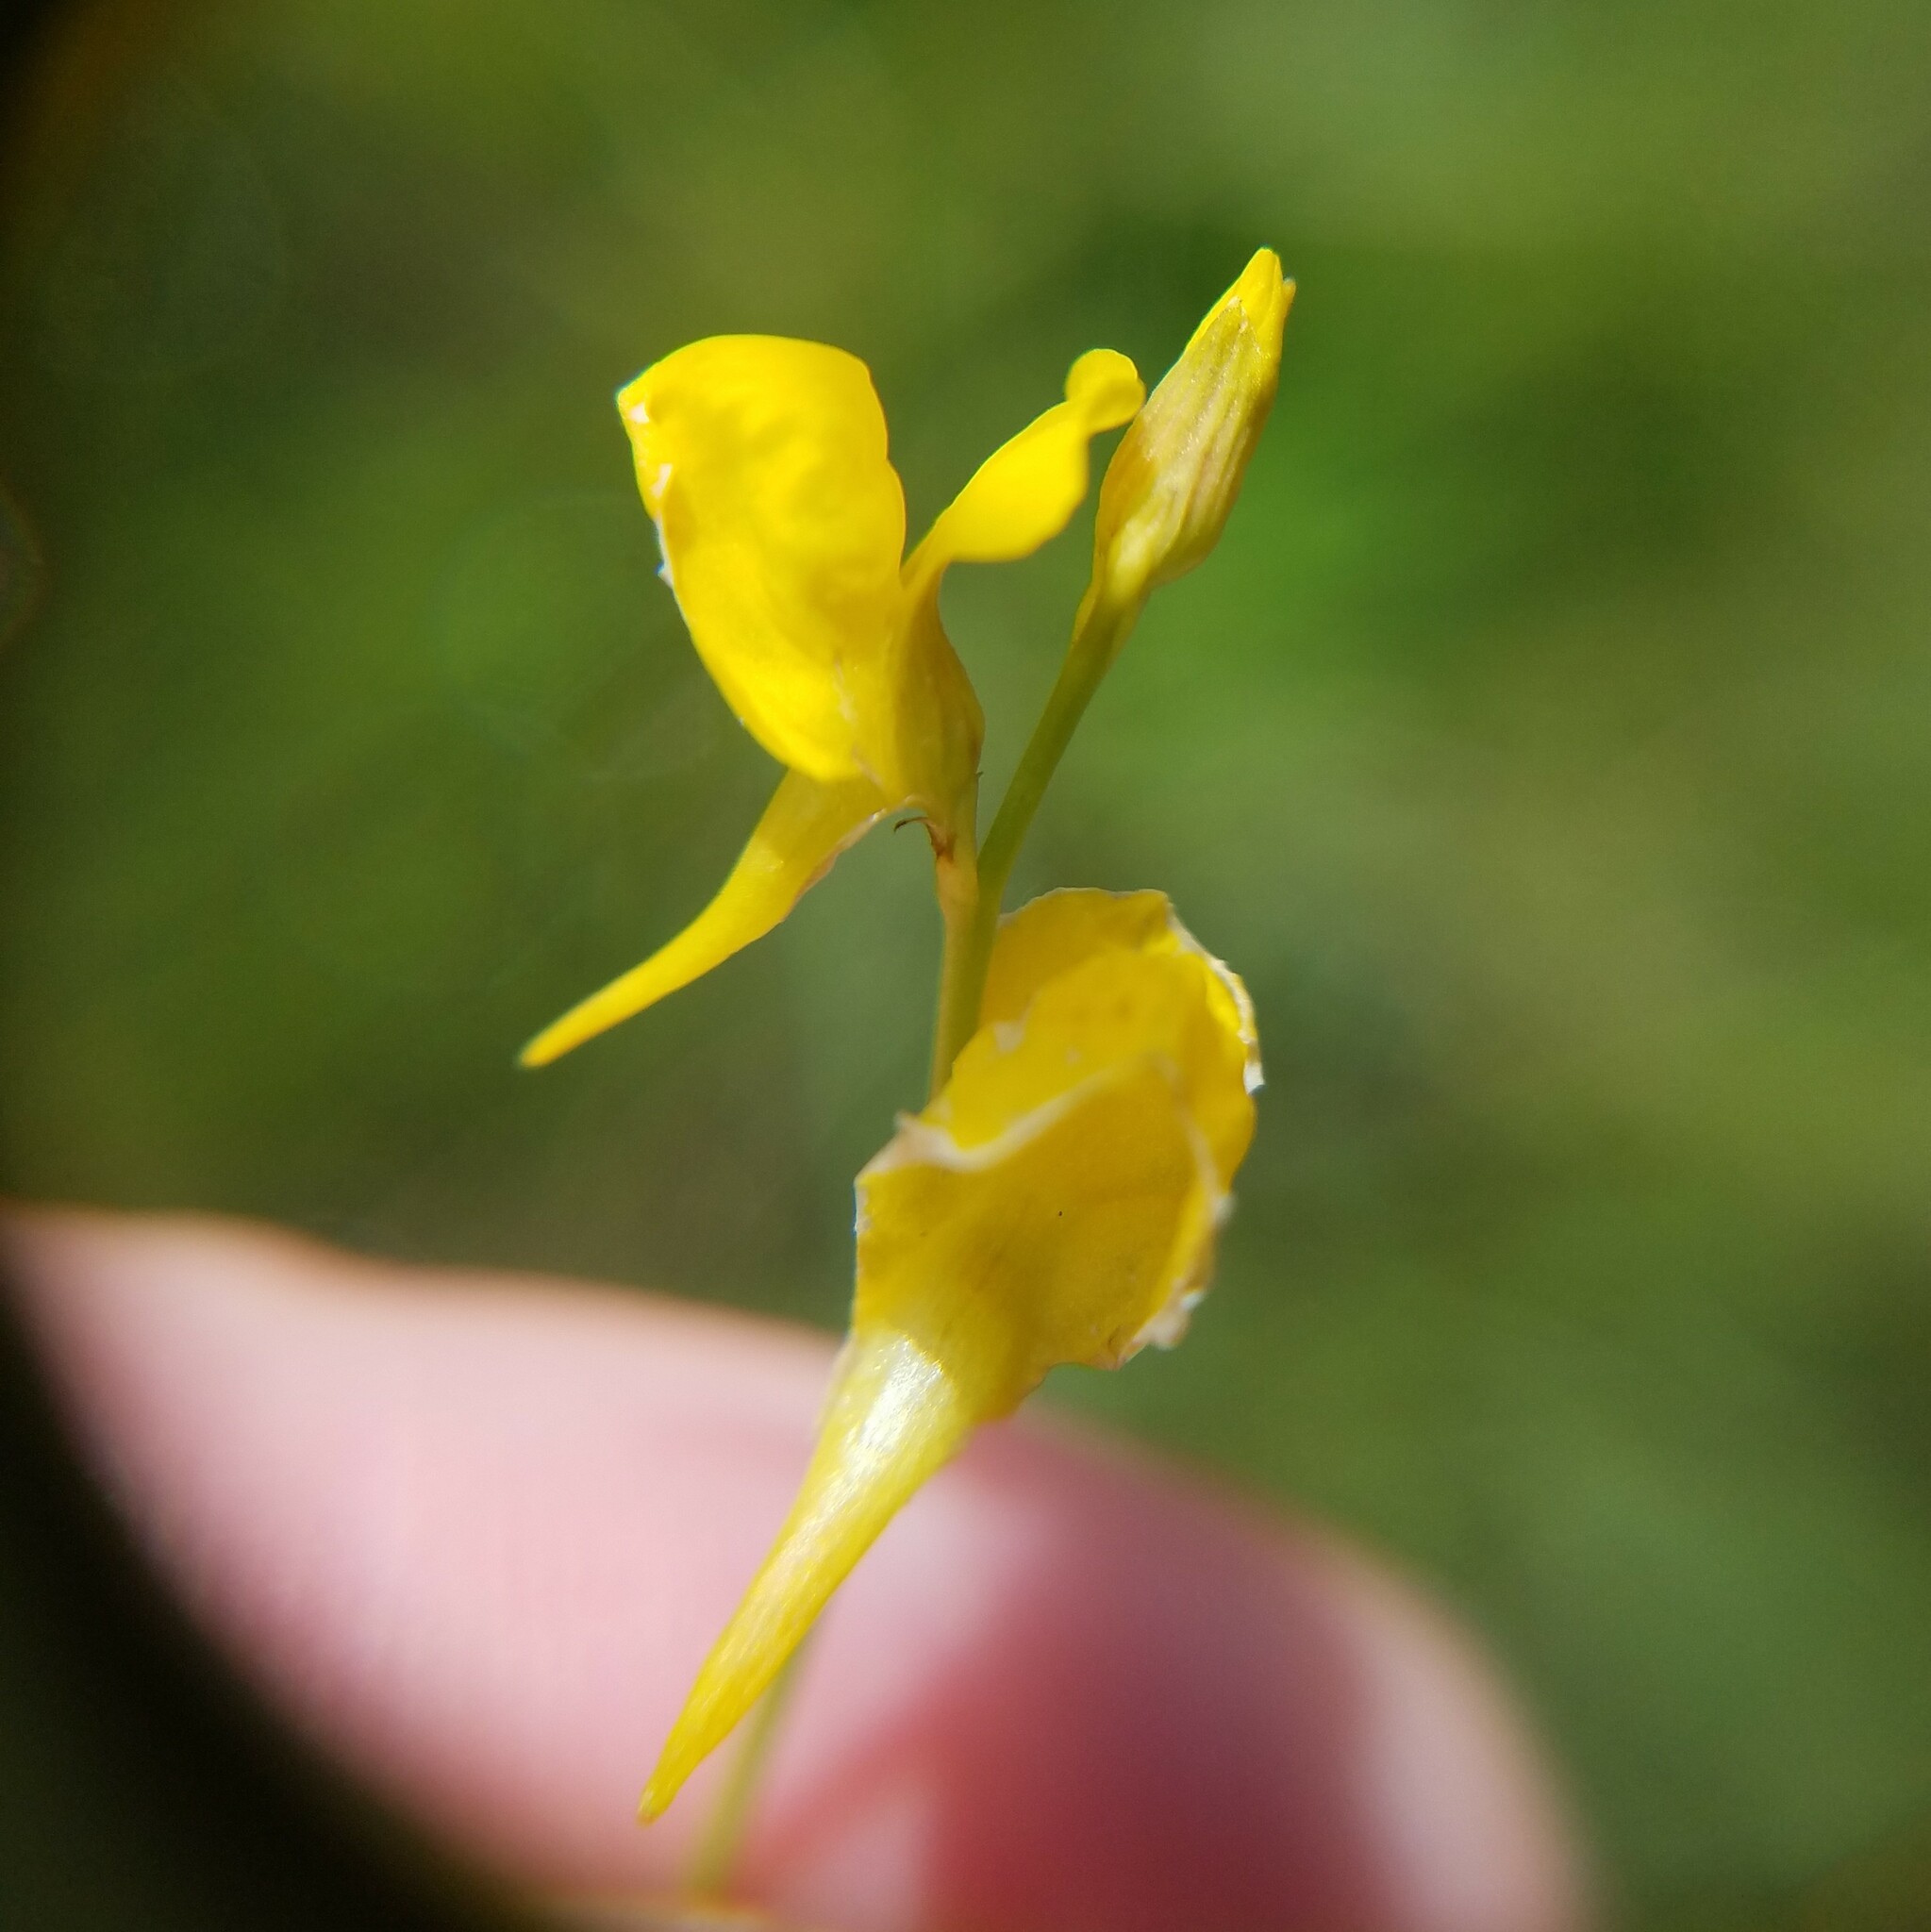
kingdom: Plantae
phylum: Tracheophyta
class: Magnoliopsida
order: Lamiales
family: Lentibulariaceae
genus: Utricularia
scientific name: Utricularia juncea
